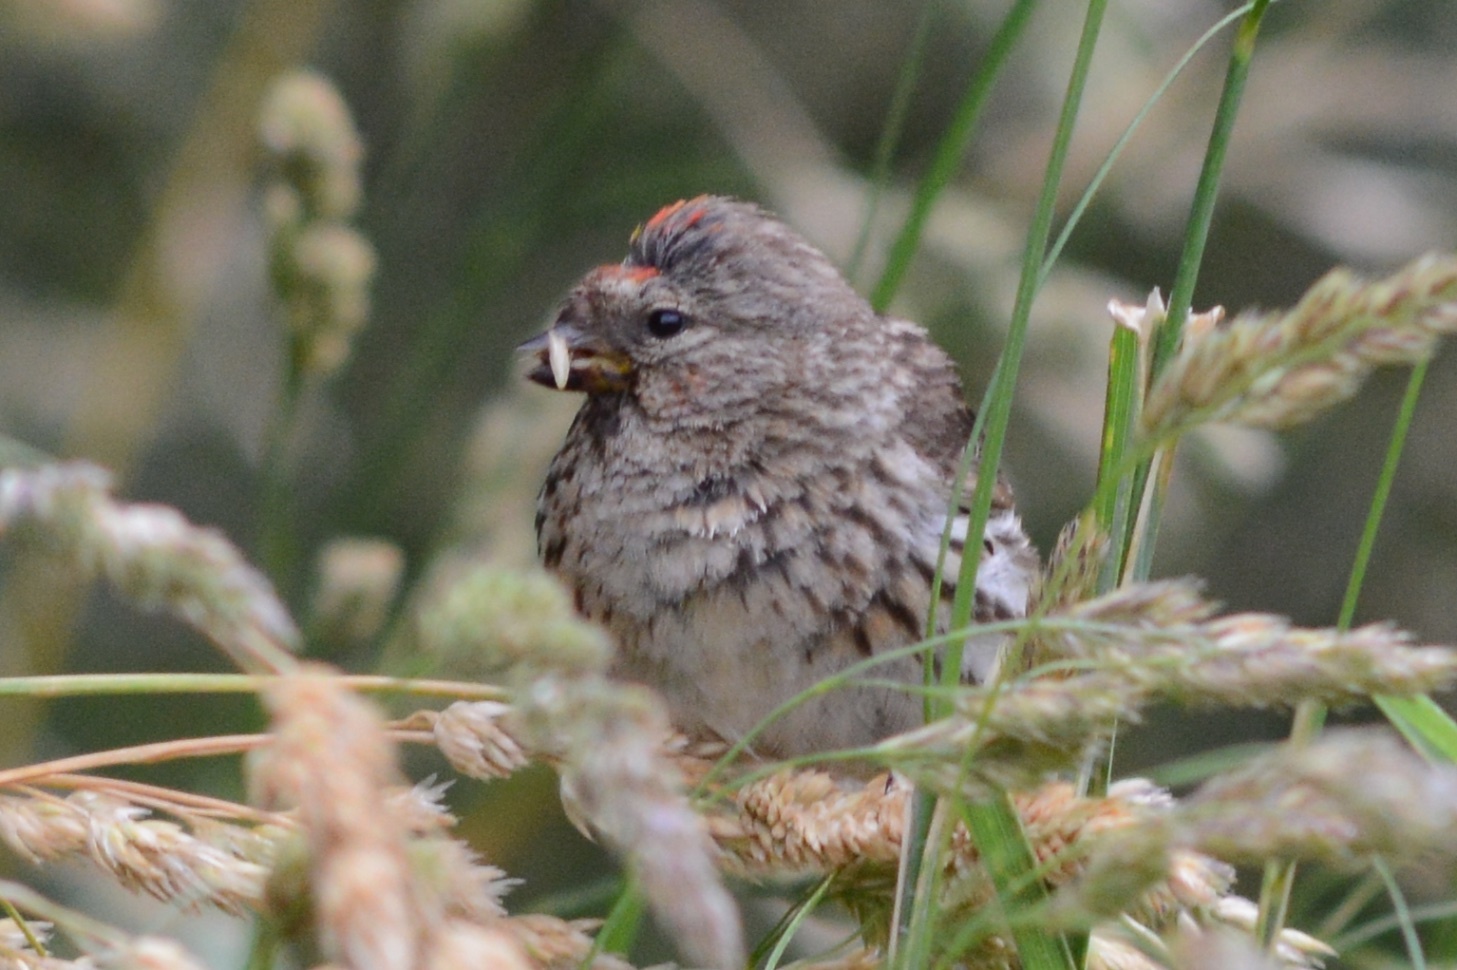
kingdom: Animalia
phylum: Chordata
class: Aves
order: Passeriformes
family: Fringillidae
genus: Acanthis
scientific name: Acanthis flammea
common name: Common redpoll
